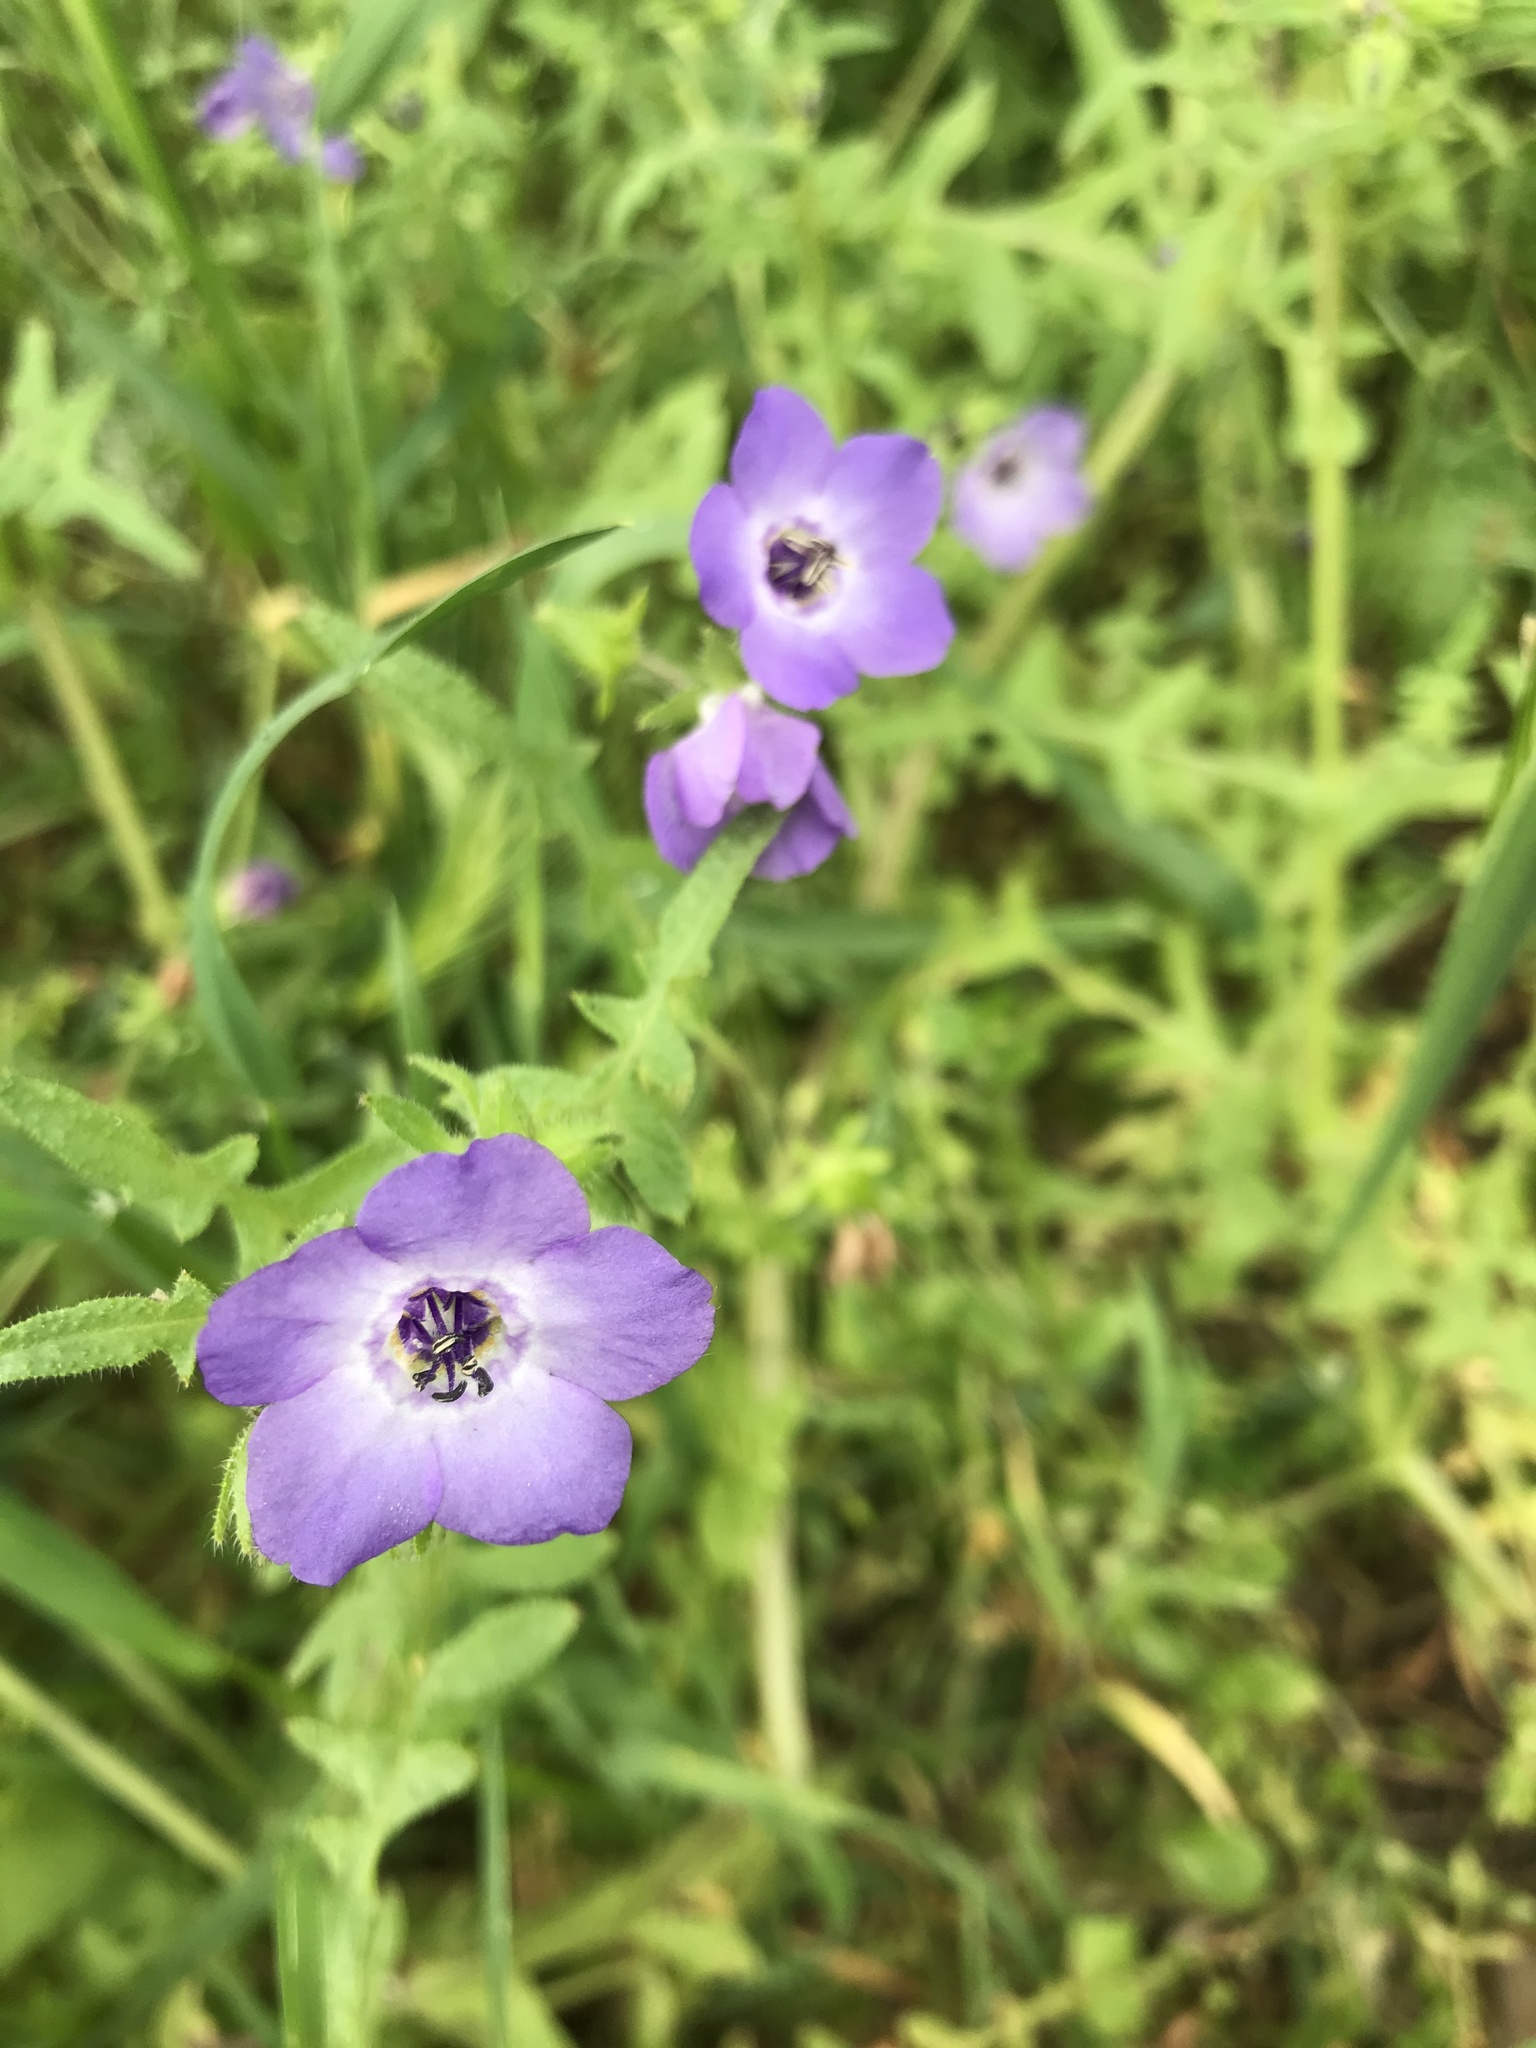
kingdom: Plantae
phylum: Tracheophyta
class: Magnoliopsida
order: Boraginales
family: Hydrophyllaceae
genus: Pholistoma
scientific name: Pholistoma auritum
